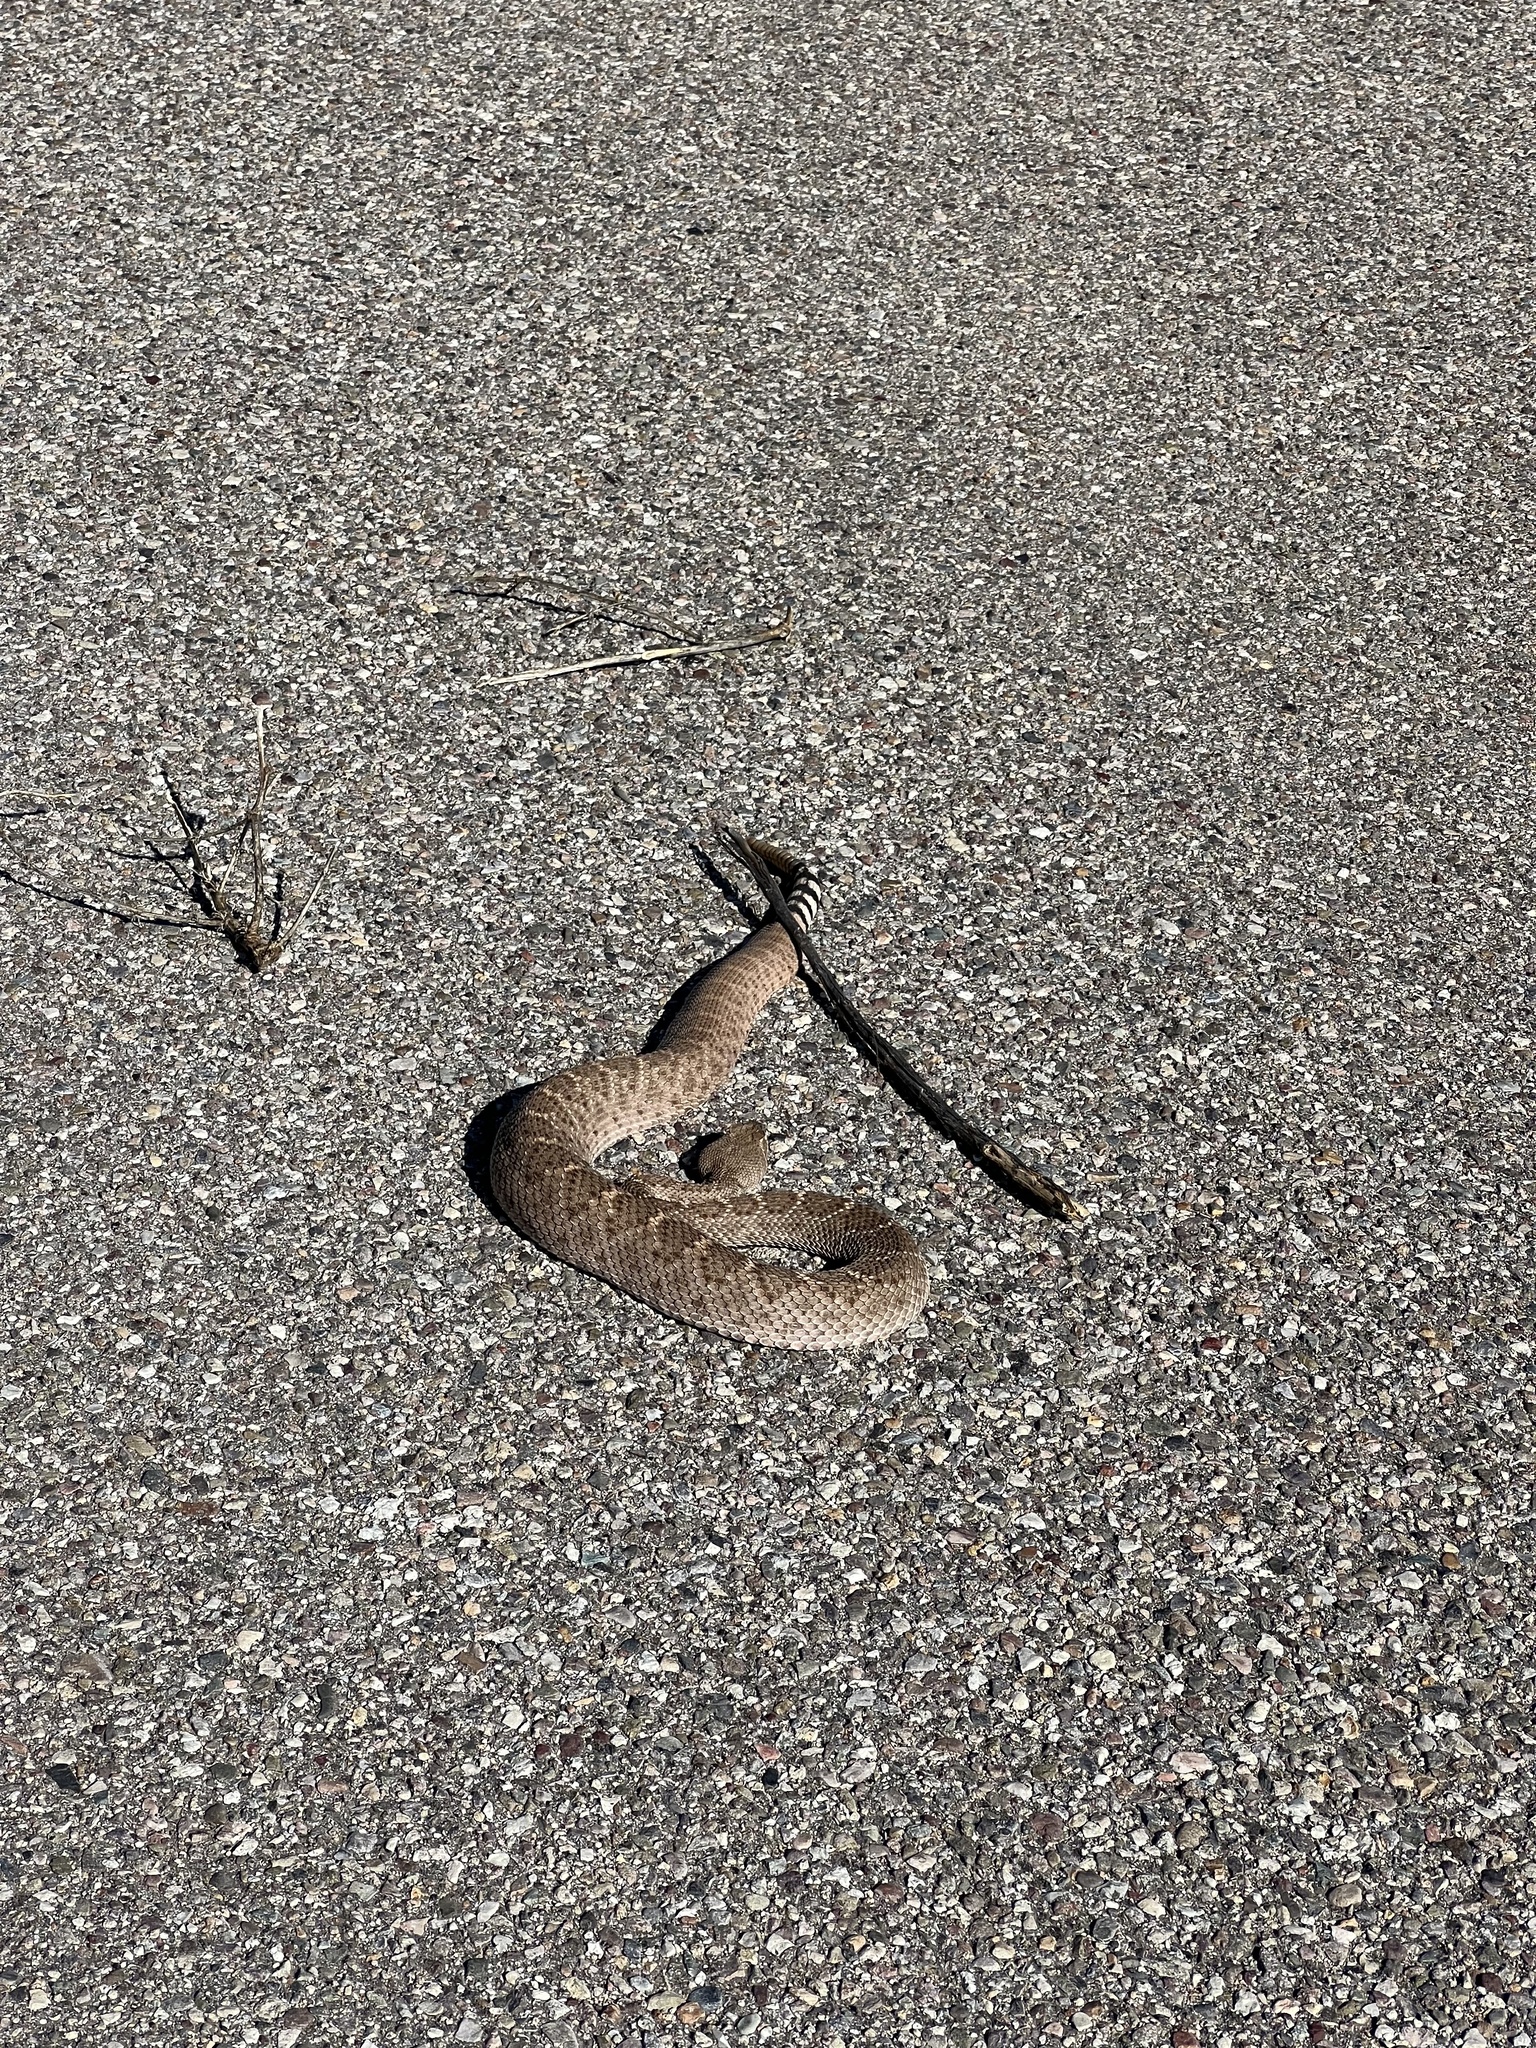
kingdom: Animalia
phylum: Chordata
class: Squamata
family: Viperidae
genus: Crotalus
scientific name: Crotalus atrox
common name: Western diamond-backed rattlesnake
